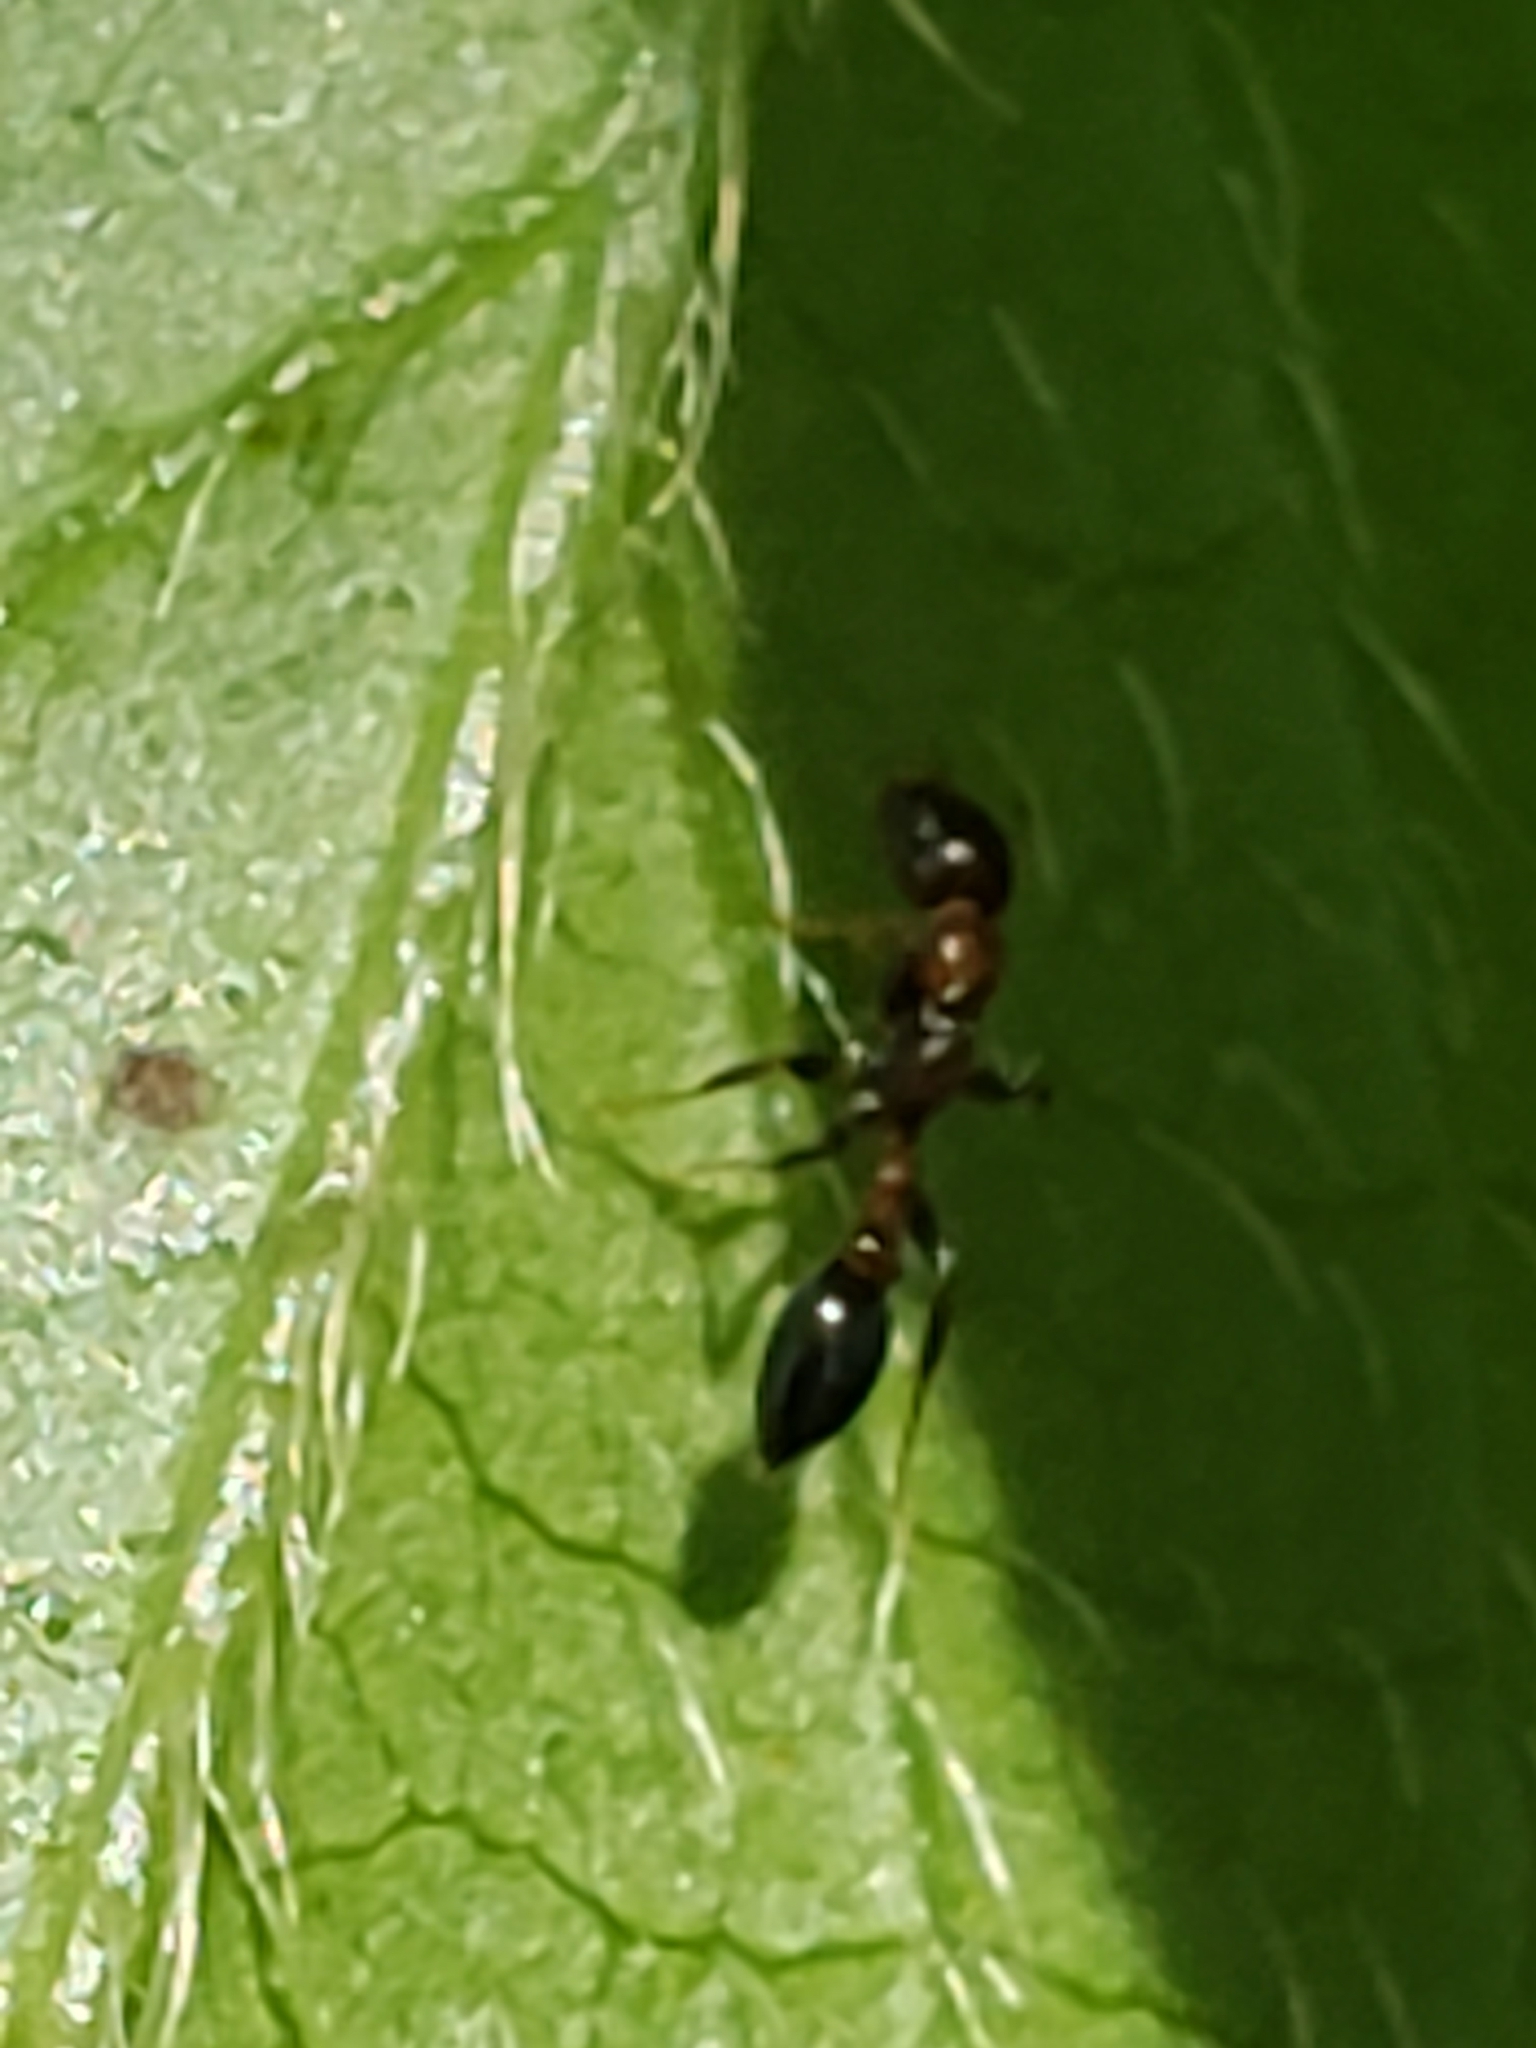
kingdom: Animalia
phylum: Arthropoda
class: Insecta
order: Hymenoptera
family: Formicidae
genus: Pseudomyrmex
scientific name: Pseudomyrmex ejectus
